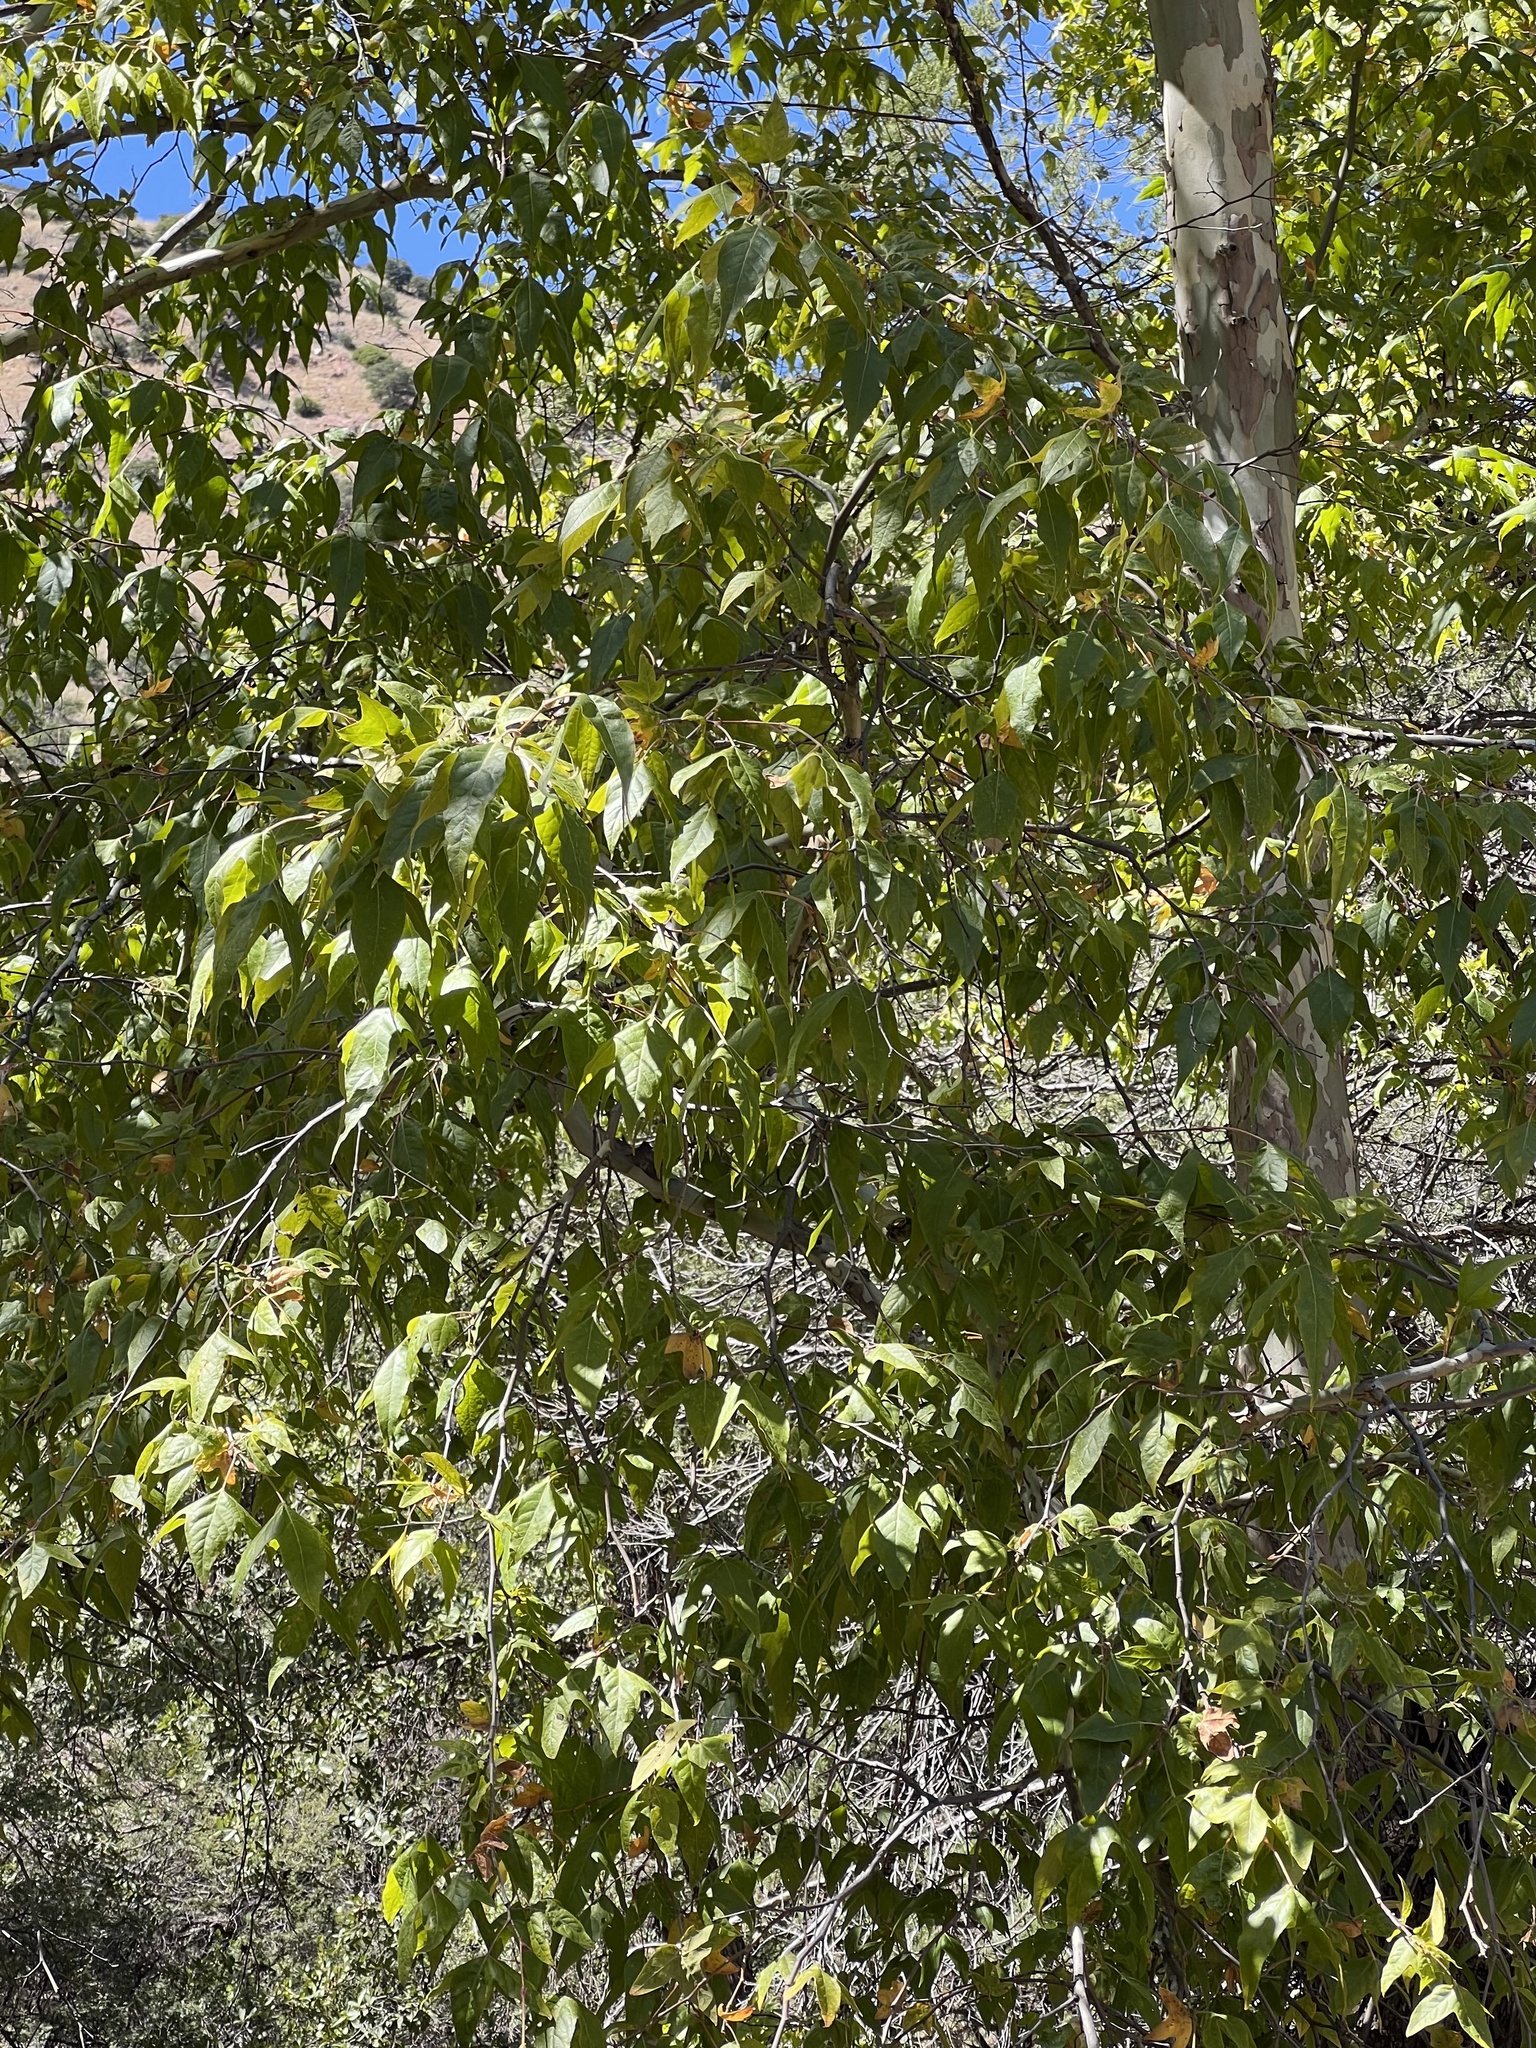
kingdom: Plantae
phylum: Tracheophyta
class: Magnoliopsida
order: Proteales
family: Platanaceae
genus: Platanus
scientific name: Platanus wrightii
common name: Arizona sycamore
